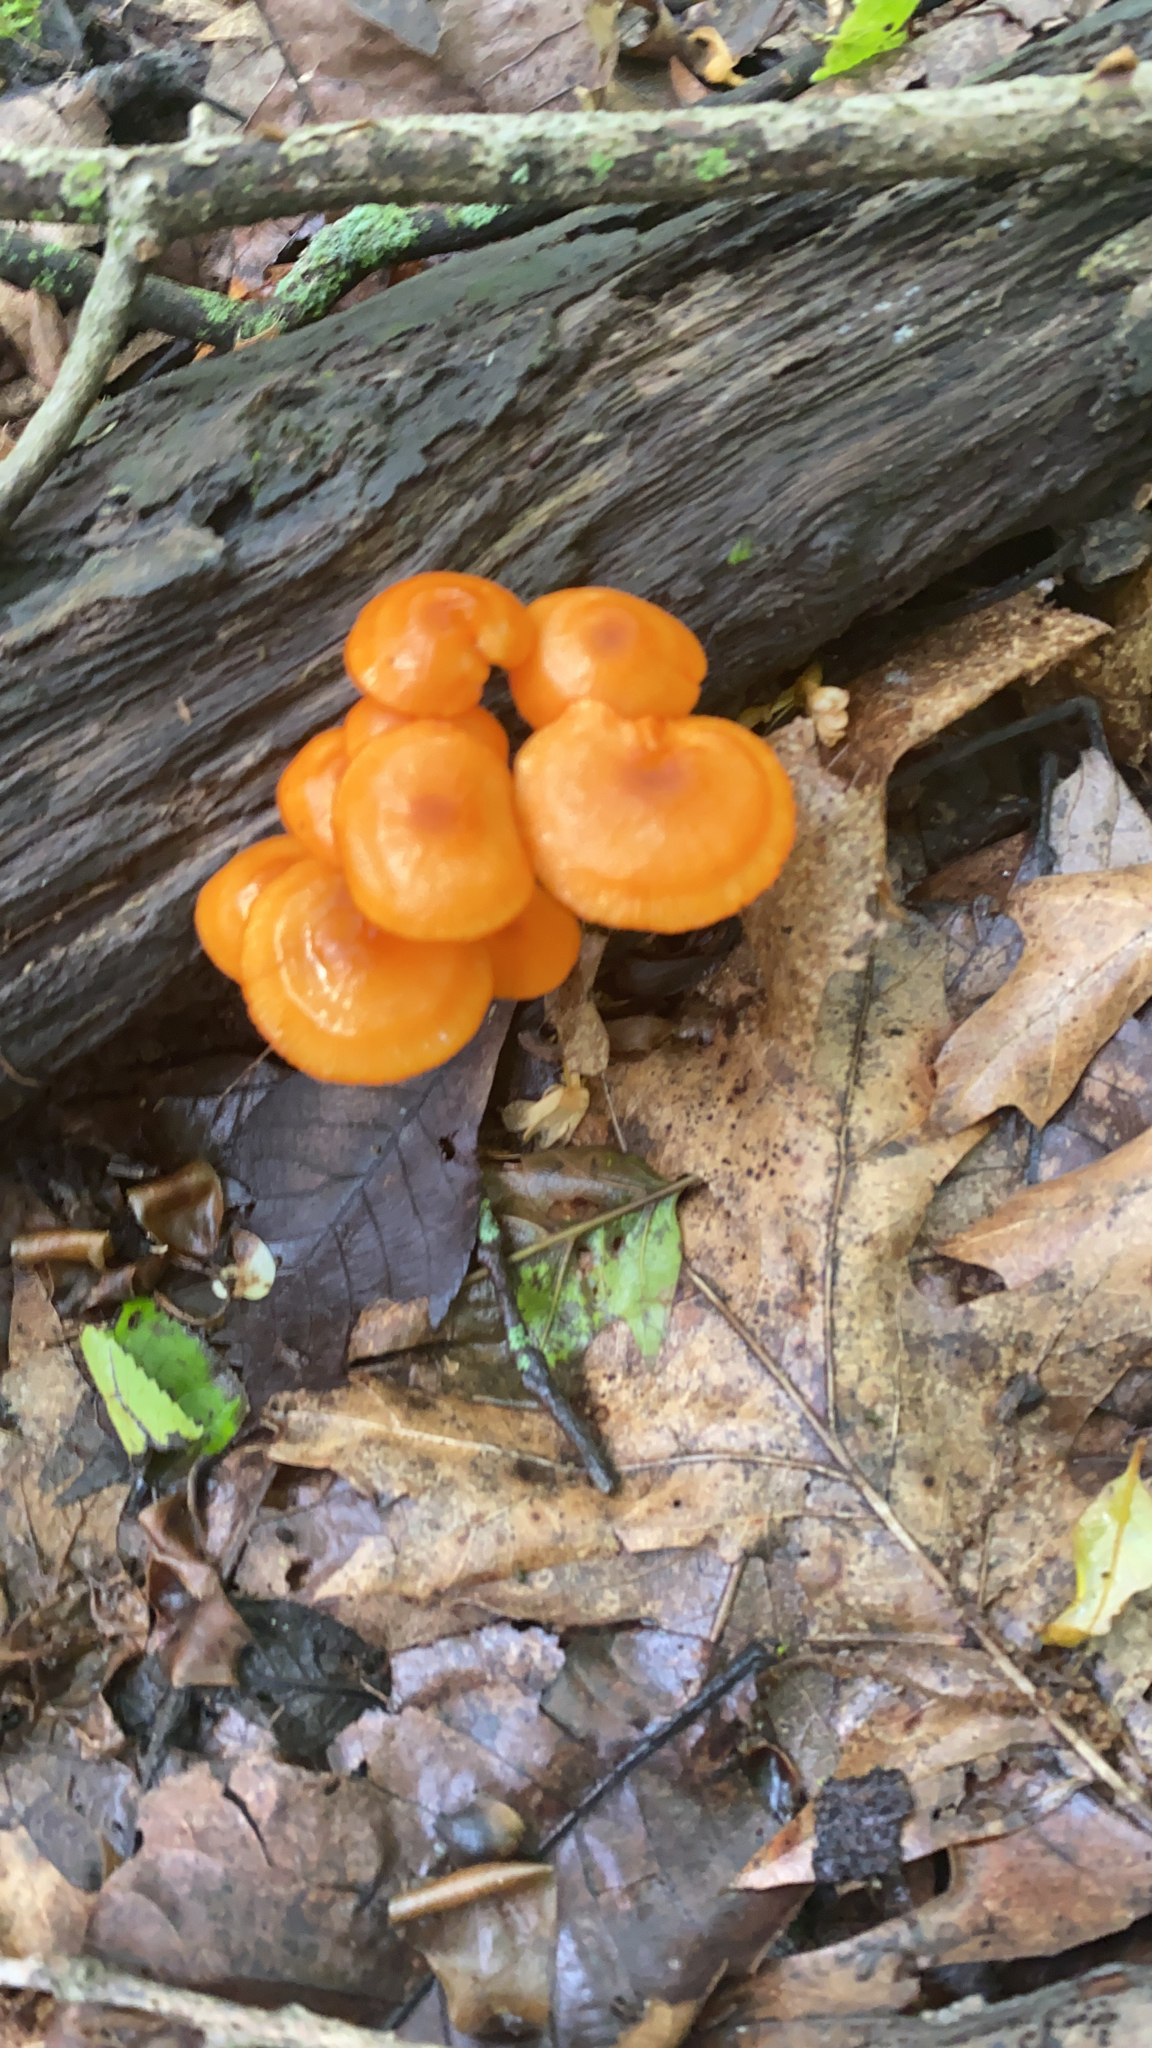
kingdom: Fungi
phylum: Basidiomycota
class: Agaricomycetes
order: Agaricales
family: Mycenaceae
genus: Mycena
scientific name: Mycena leaiana
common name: Orange mycena
